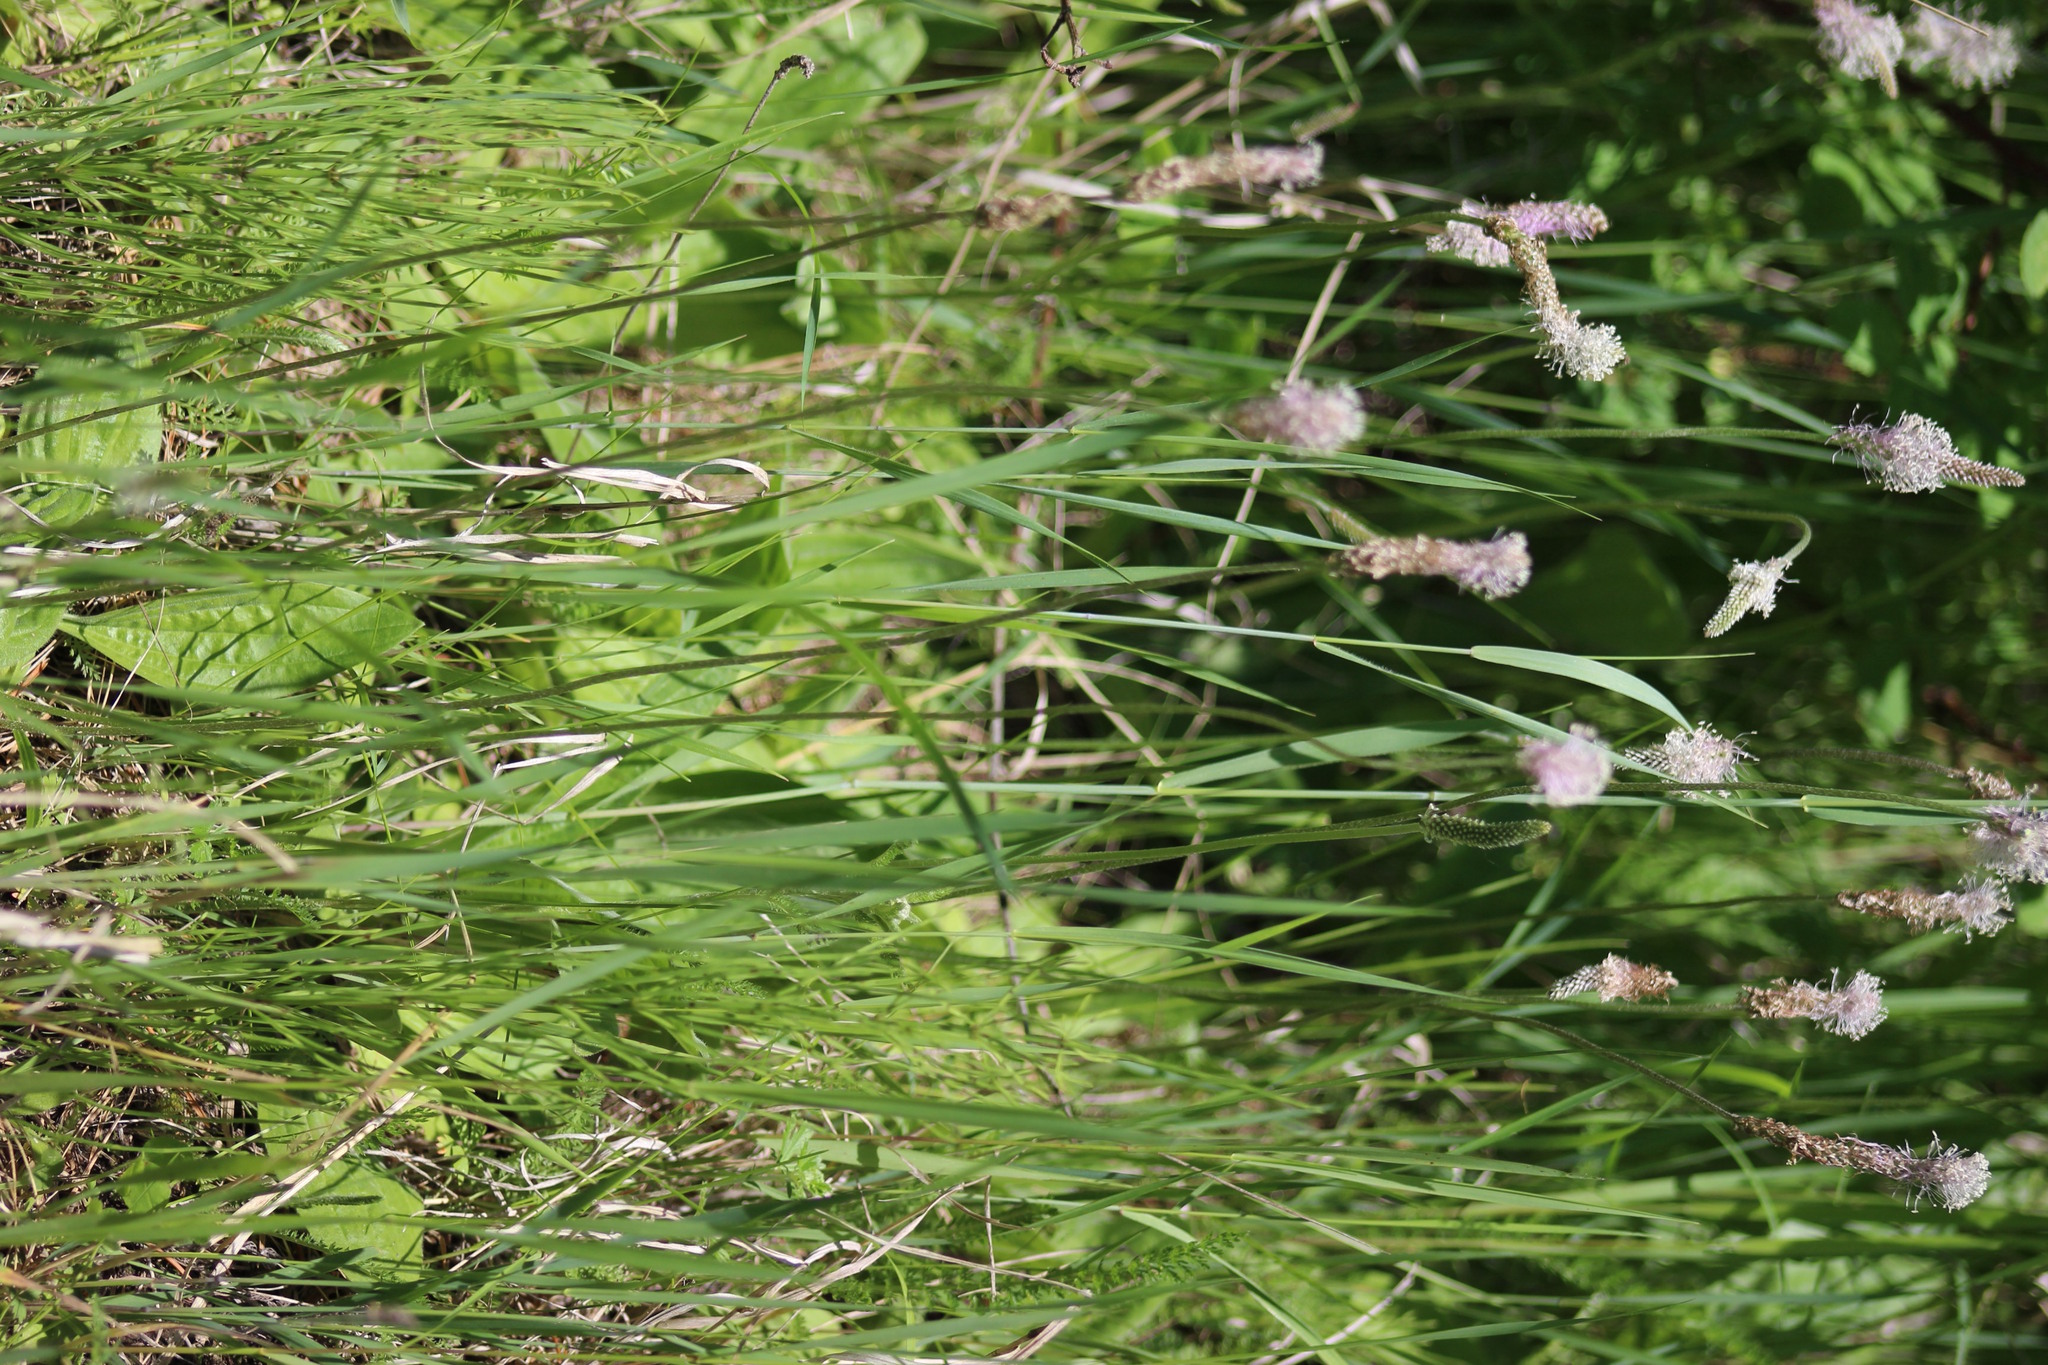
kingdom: Plantae
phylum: Tracheophyta
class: Magnoliopsida
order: Lamiales
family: Plantaginaceae
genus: Plantago
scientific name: Plantago media
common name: Hoary plantain
